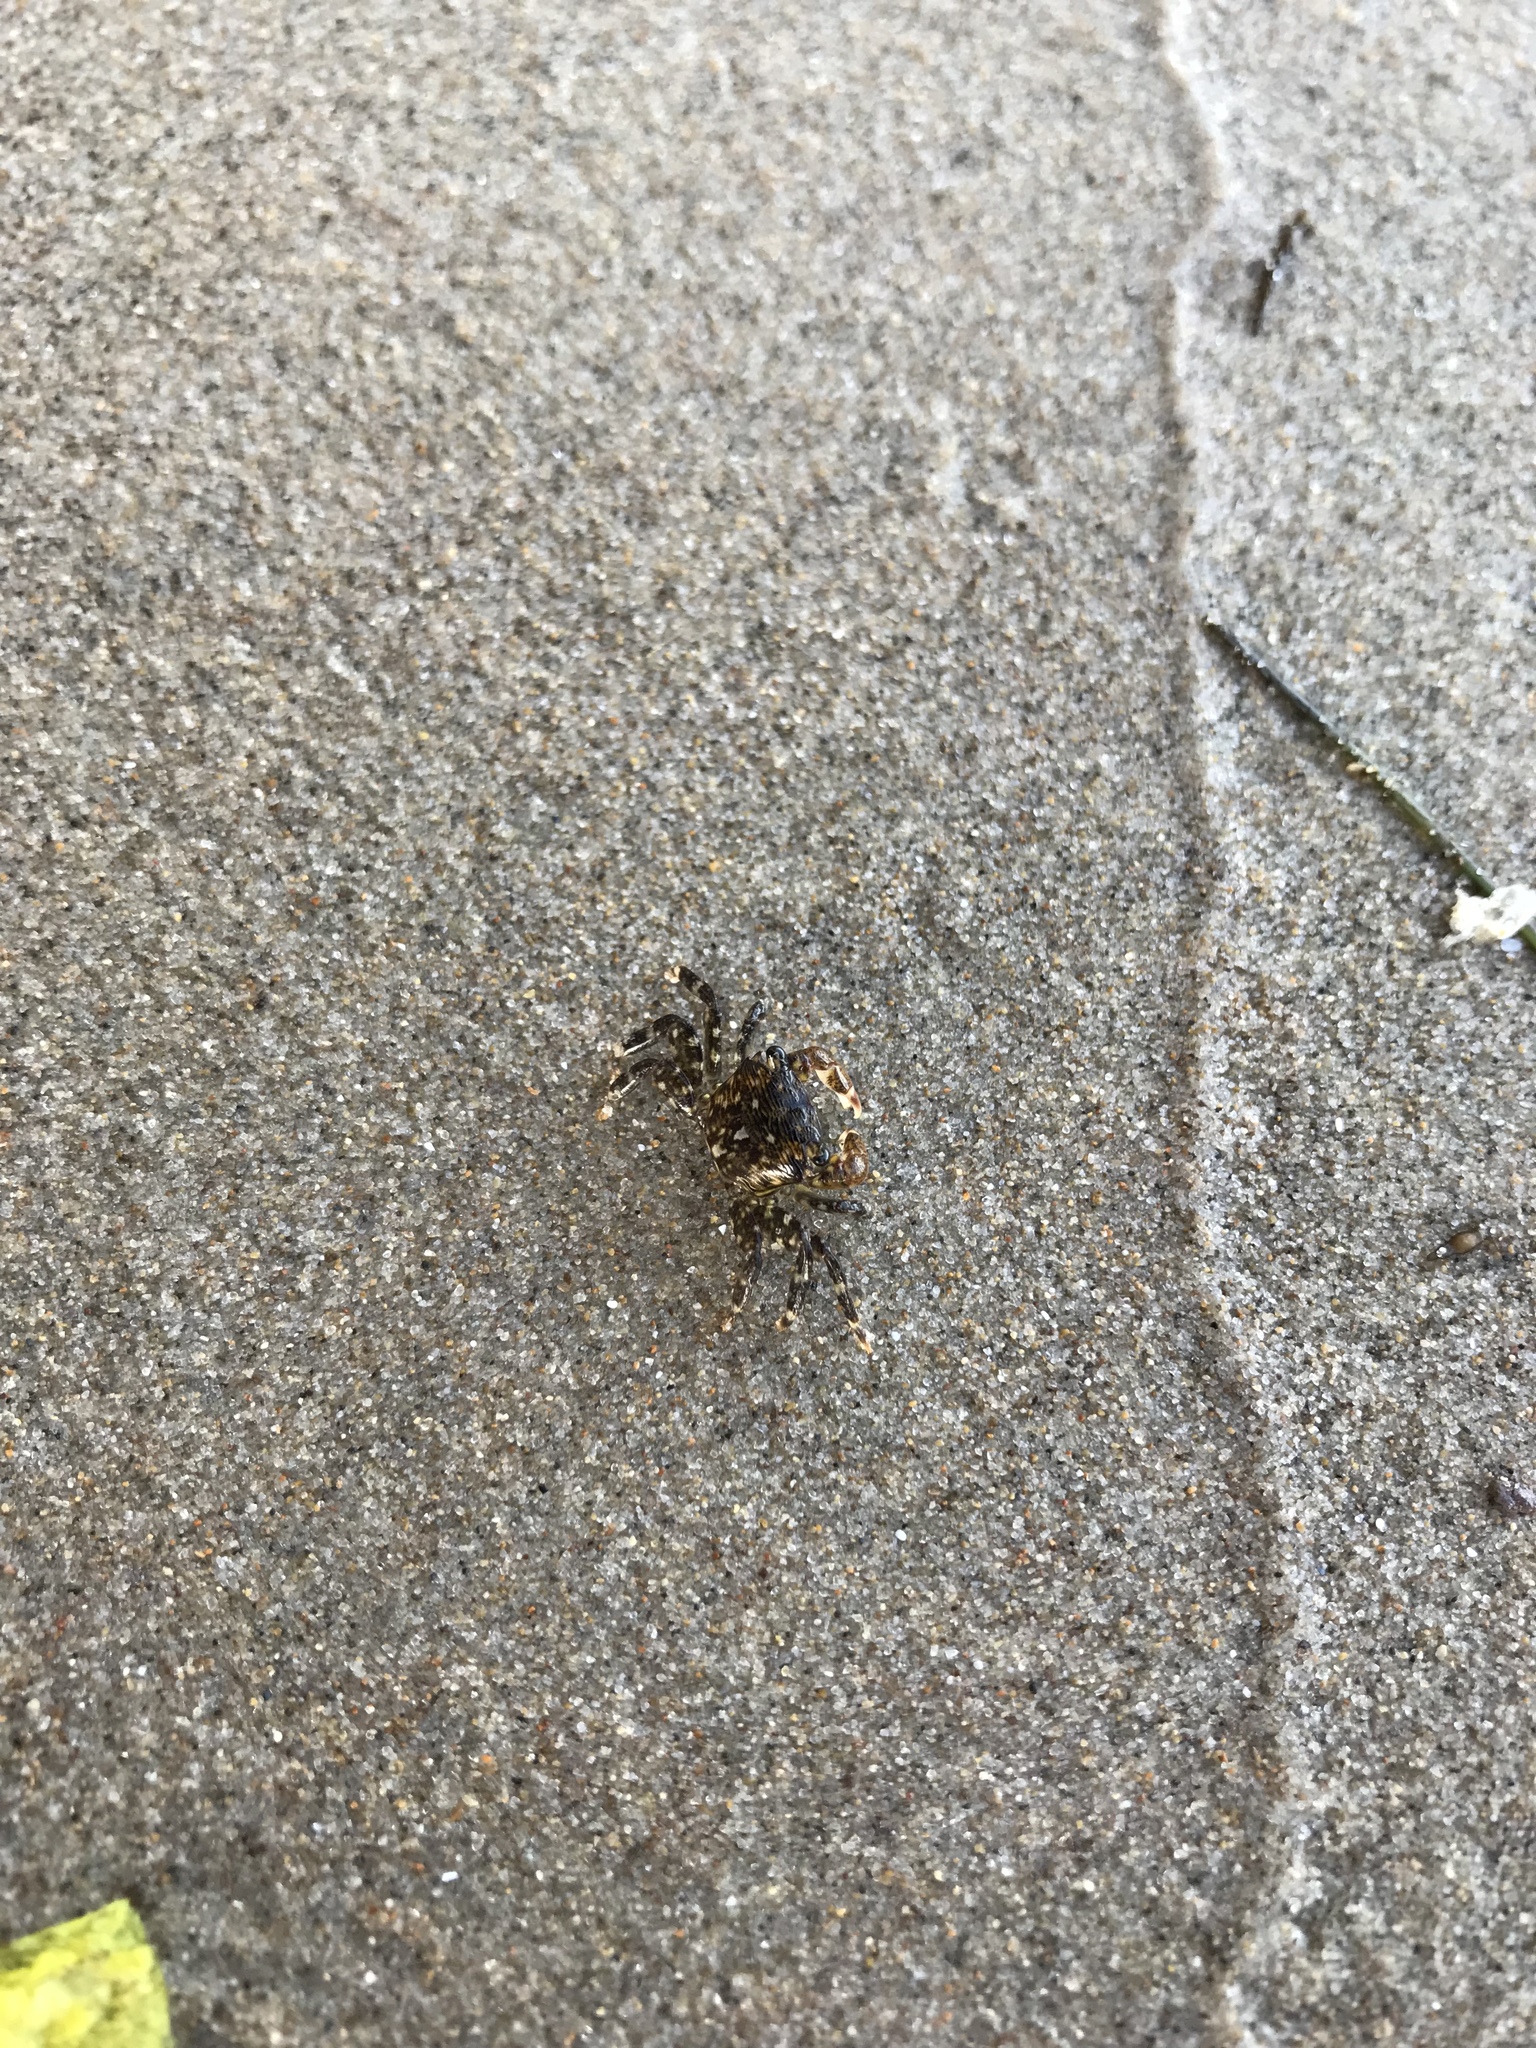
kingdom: Animalia
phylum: Arthropoda
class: Malacostraca
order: Decapoda
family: Grapsidae
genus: Pachygrapsus
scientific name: Pachygrapsus crassipes
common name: Striped shore crab
